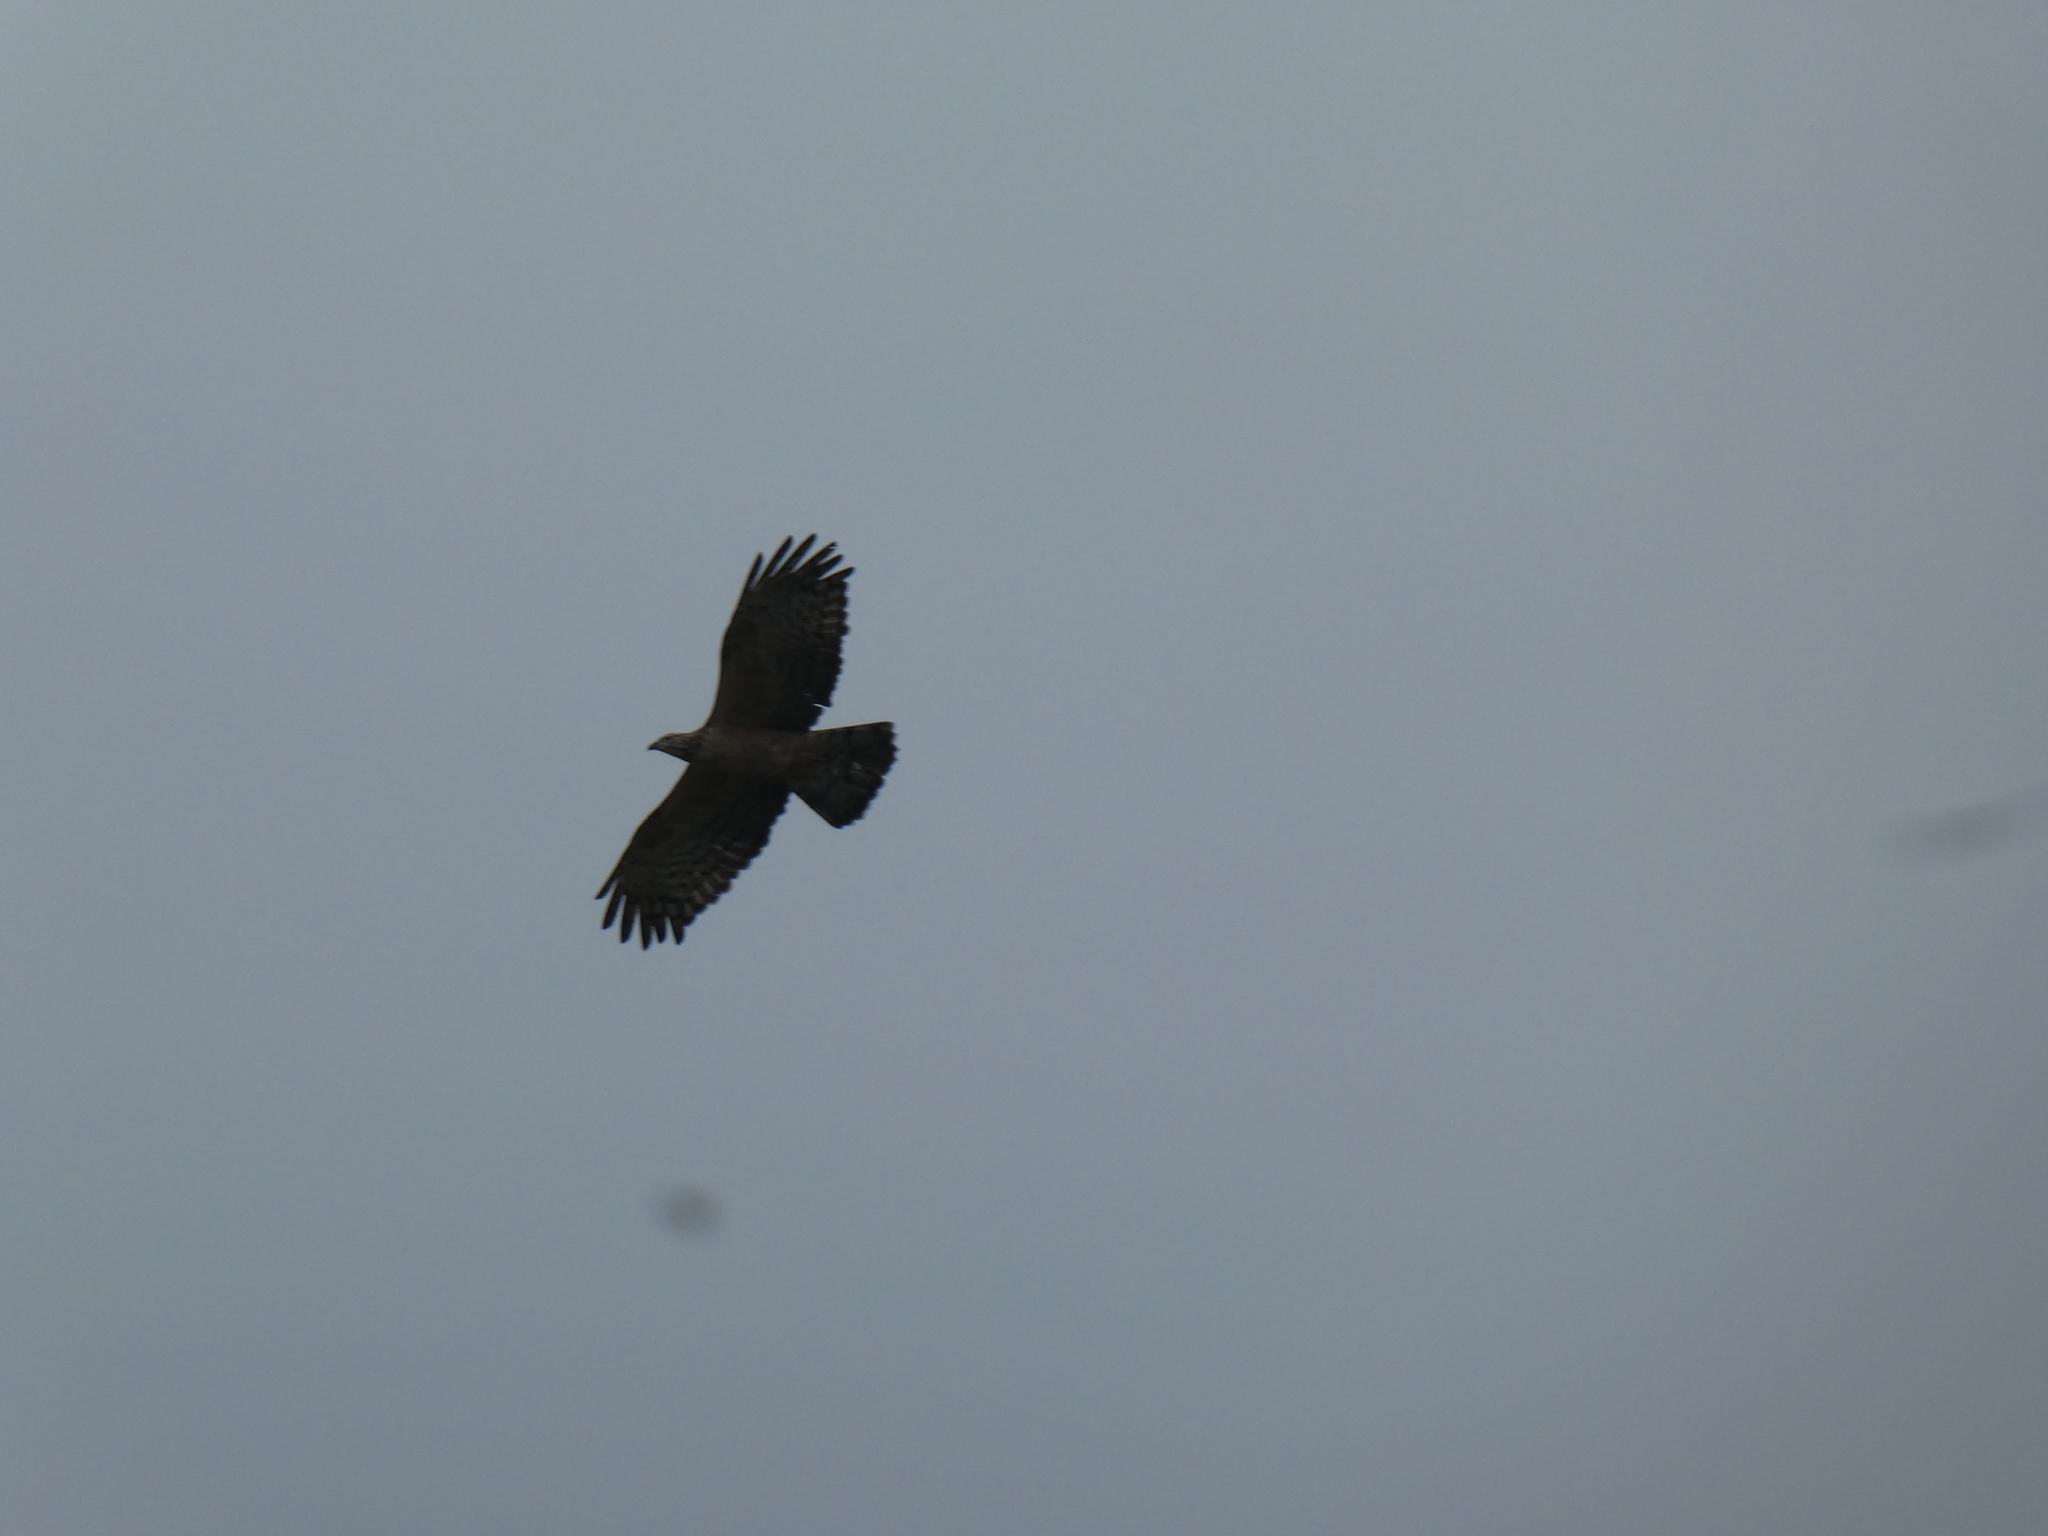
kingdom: Animalia
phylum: Chordata
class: Aves
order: Accipitriformes
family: Accipitridae
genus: Pernis
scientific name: Pernis ptilorhynchus
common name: Crested honey buzzard
